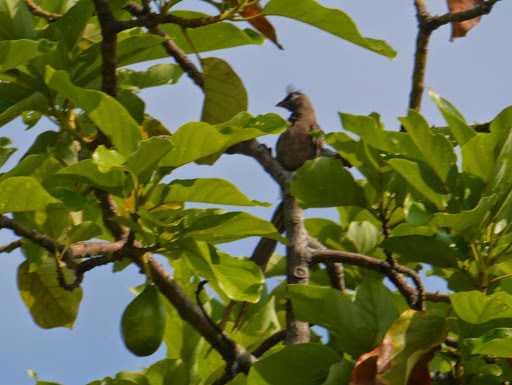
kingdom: Animalia
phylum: Chordata
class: Aves
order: Coliiformes
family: Coliidae
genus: Colius
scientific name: Colius striatus
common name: Speckled mousebird
